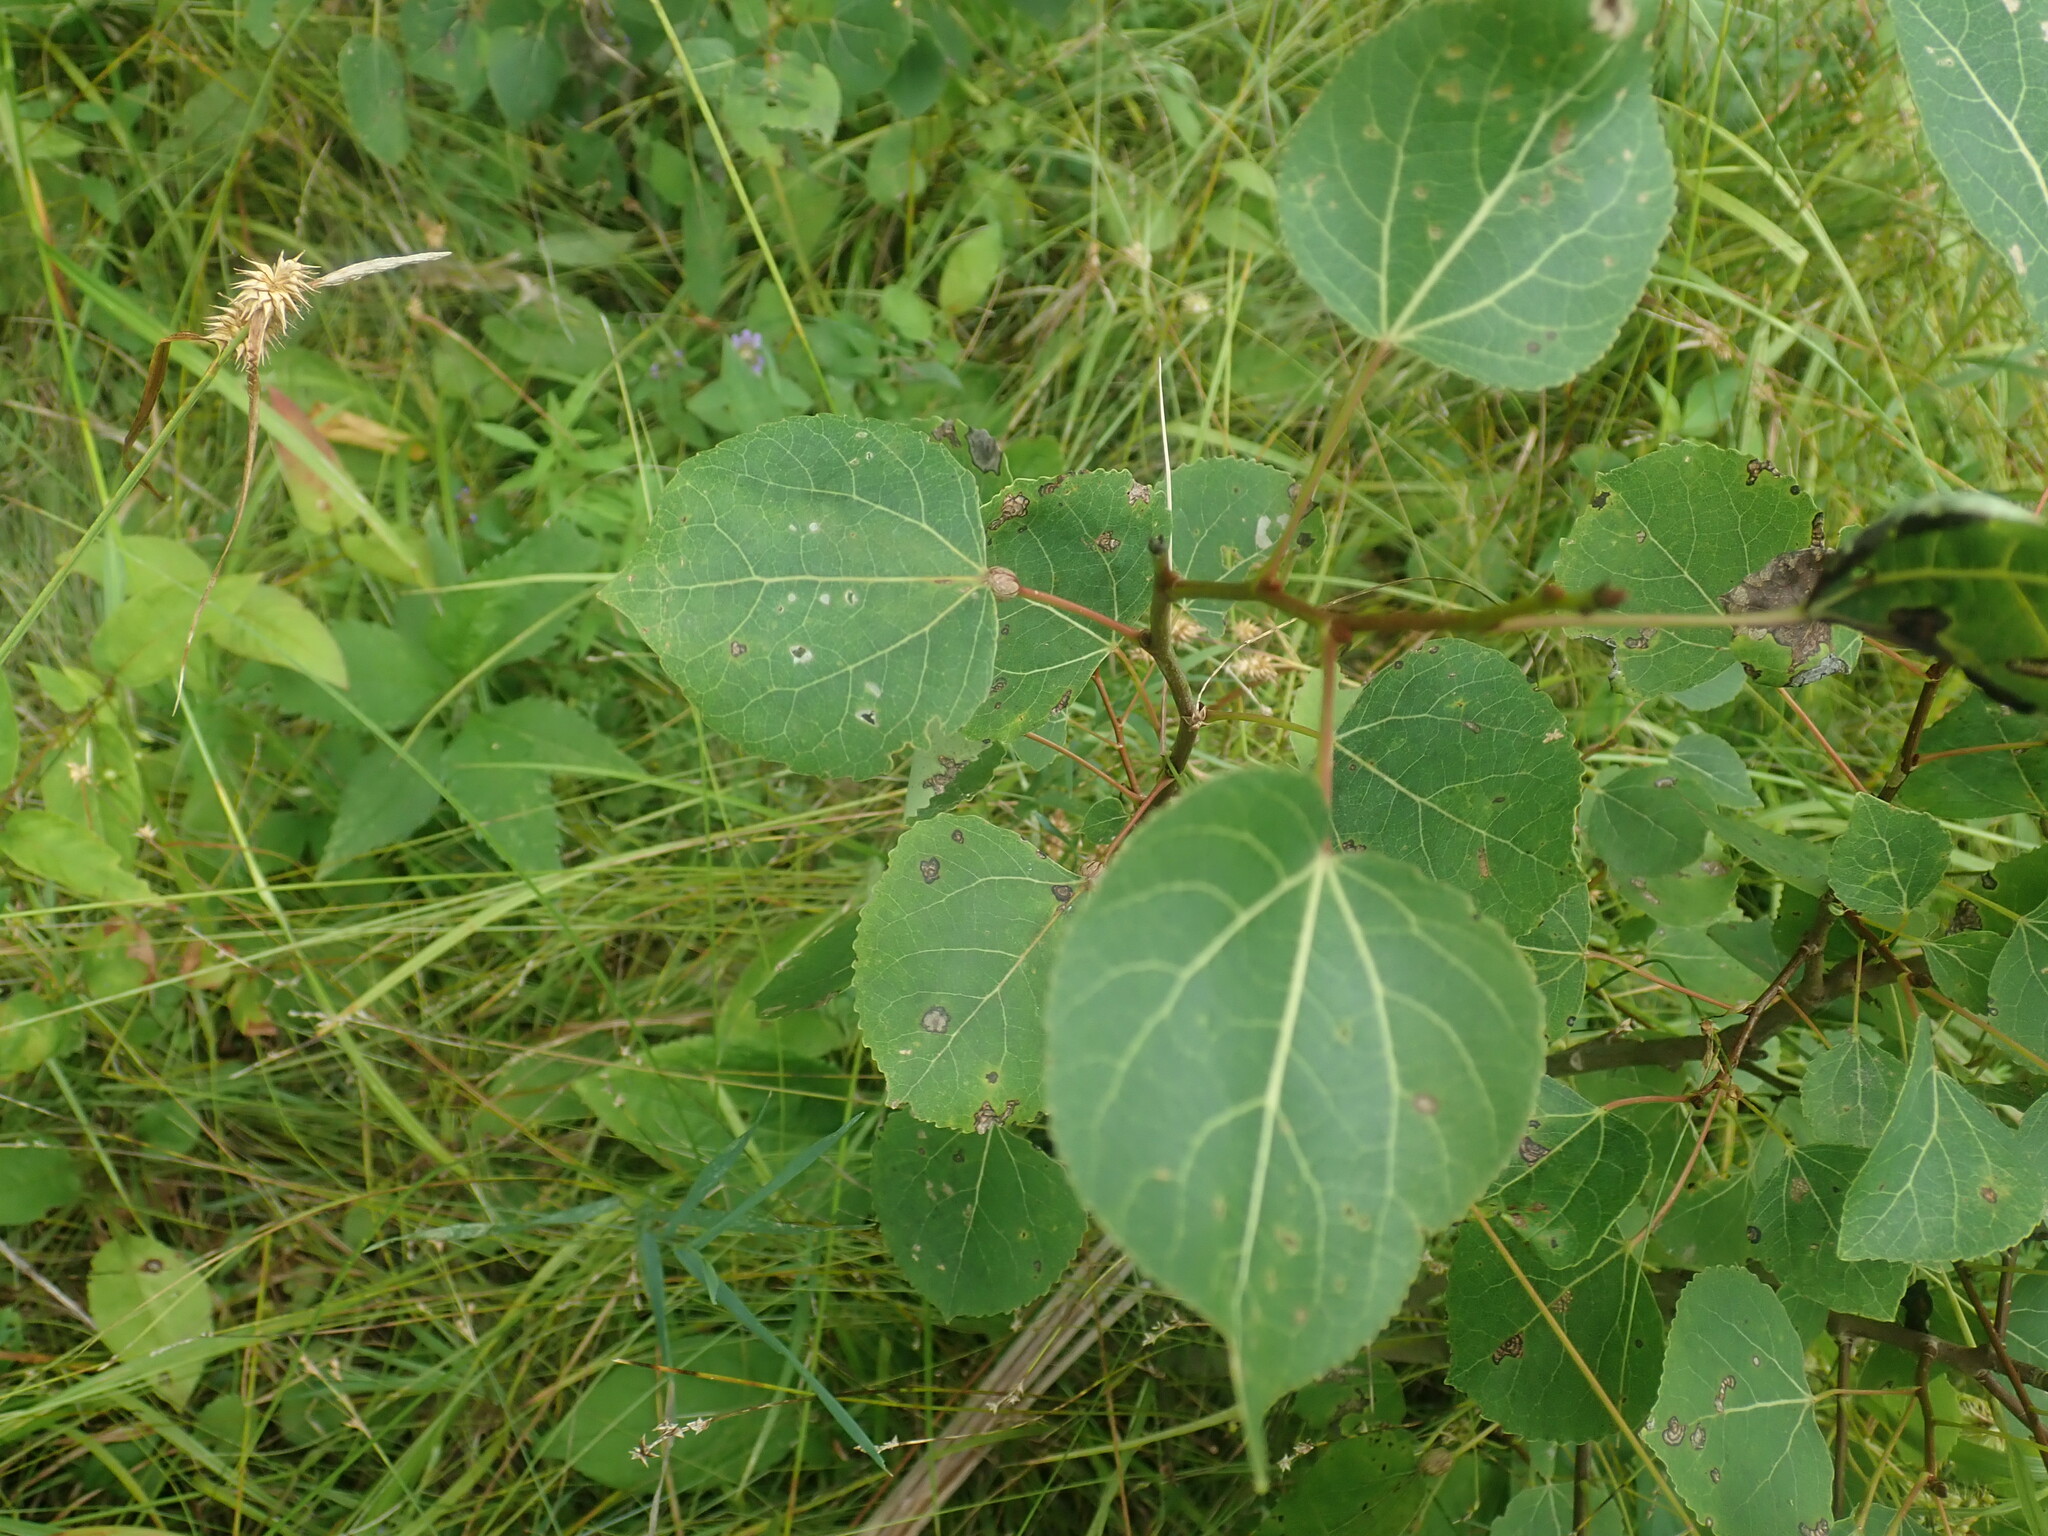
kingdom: Plantae
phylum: Tracheophyta
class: Magnoliopsida
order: Malpighiales
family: Salicaceae
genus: Populus
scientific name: Populus tremuloides
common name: Quaking aspen
